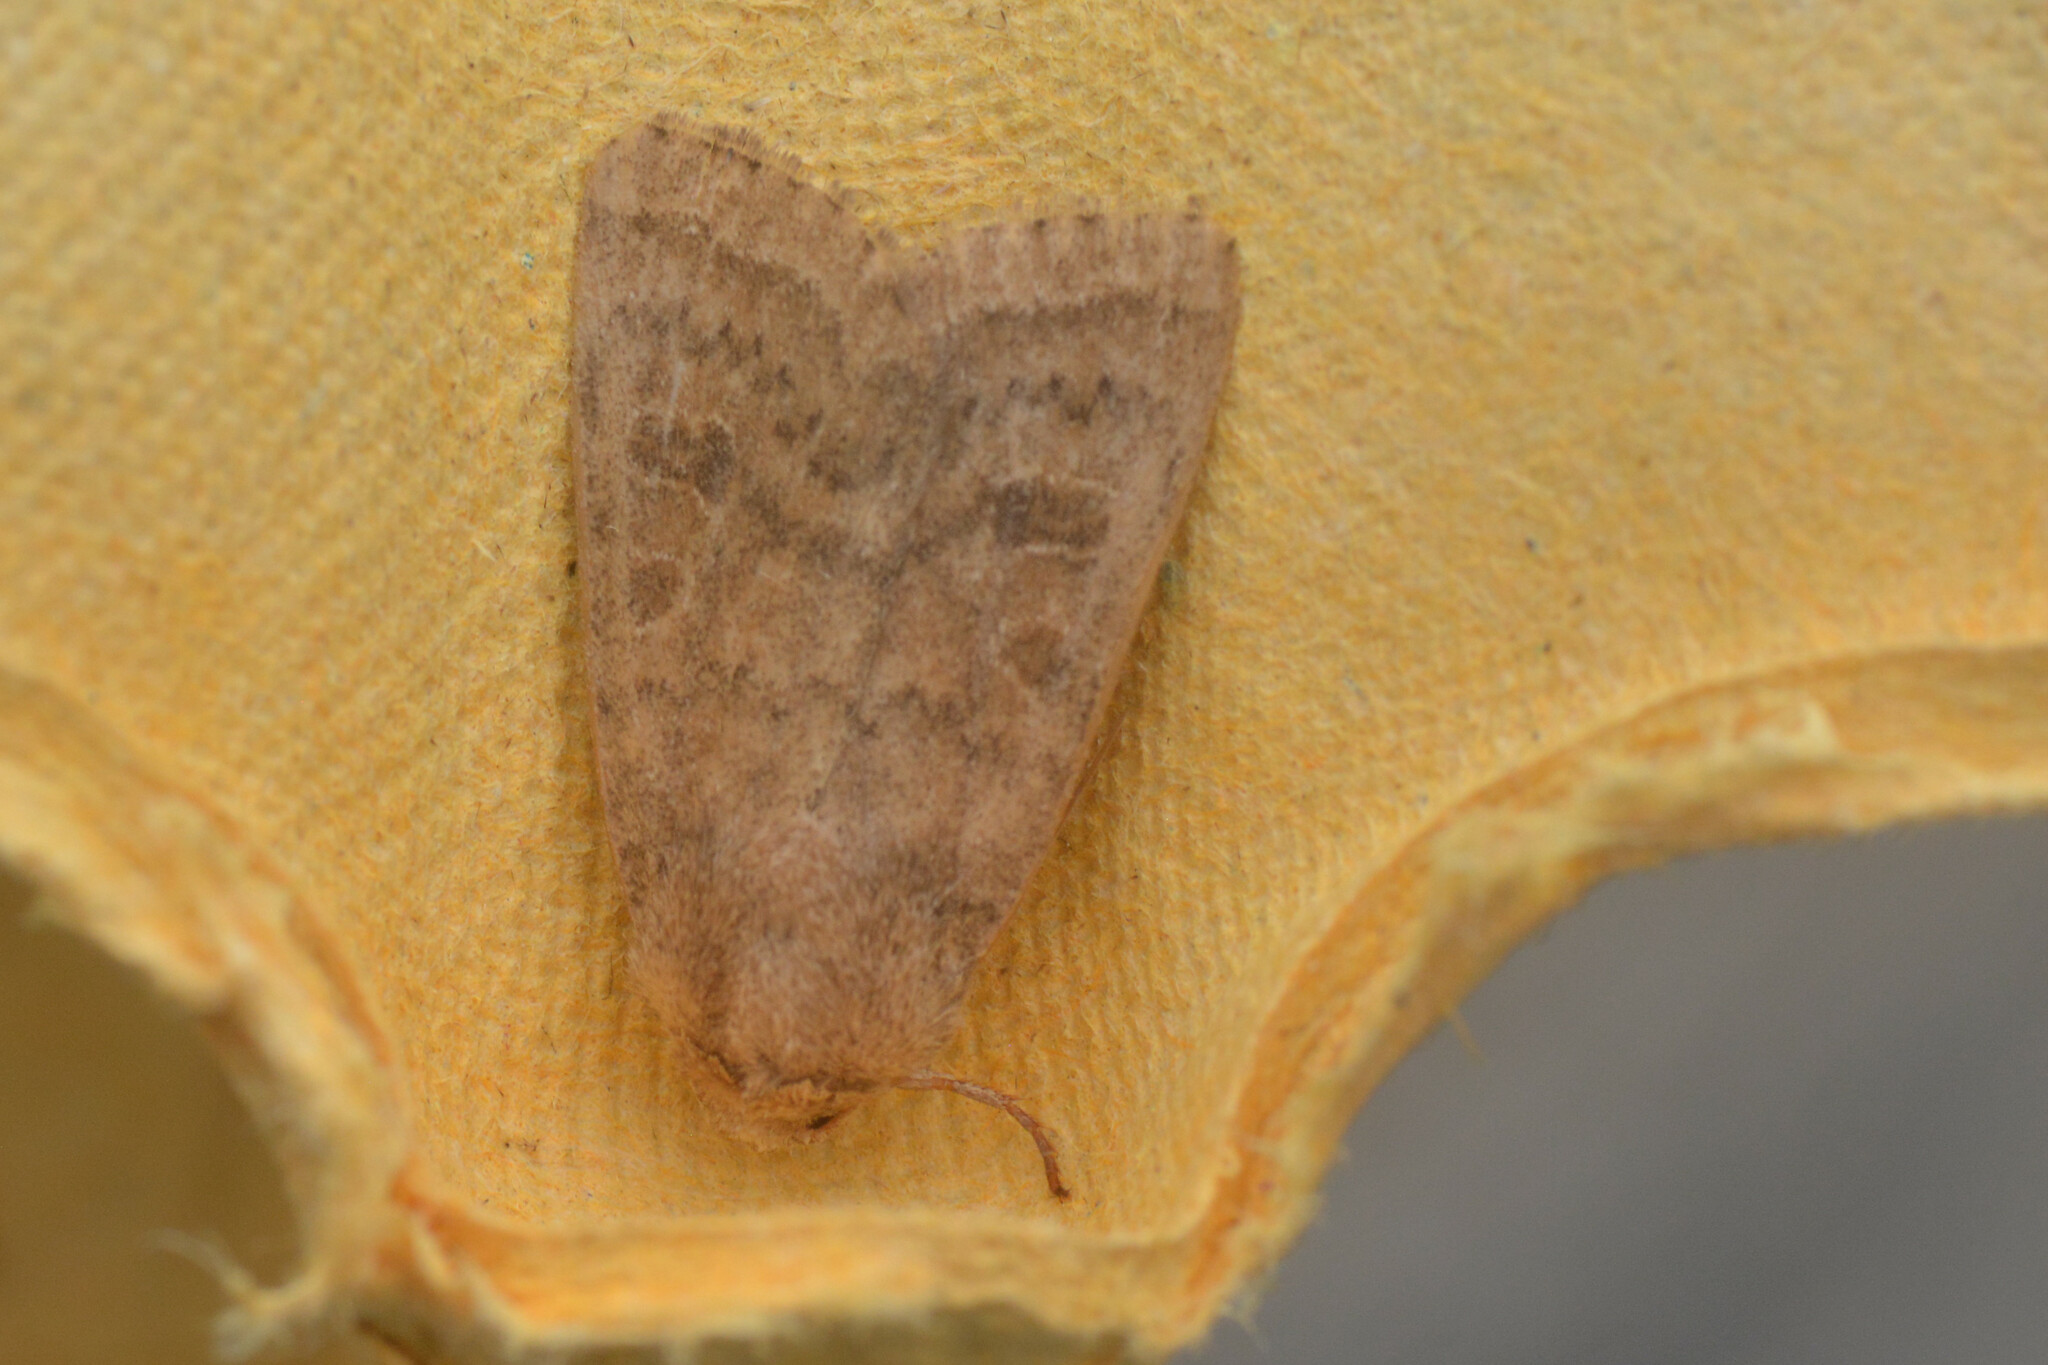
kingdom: Animalia
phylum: Arthropoda
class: Insecta
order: Lepidoptera
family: Noctuidae
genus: Hoplodrina
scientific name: Hoplodrina octogenaria
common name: Uncertain
